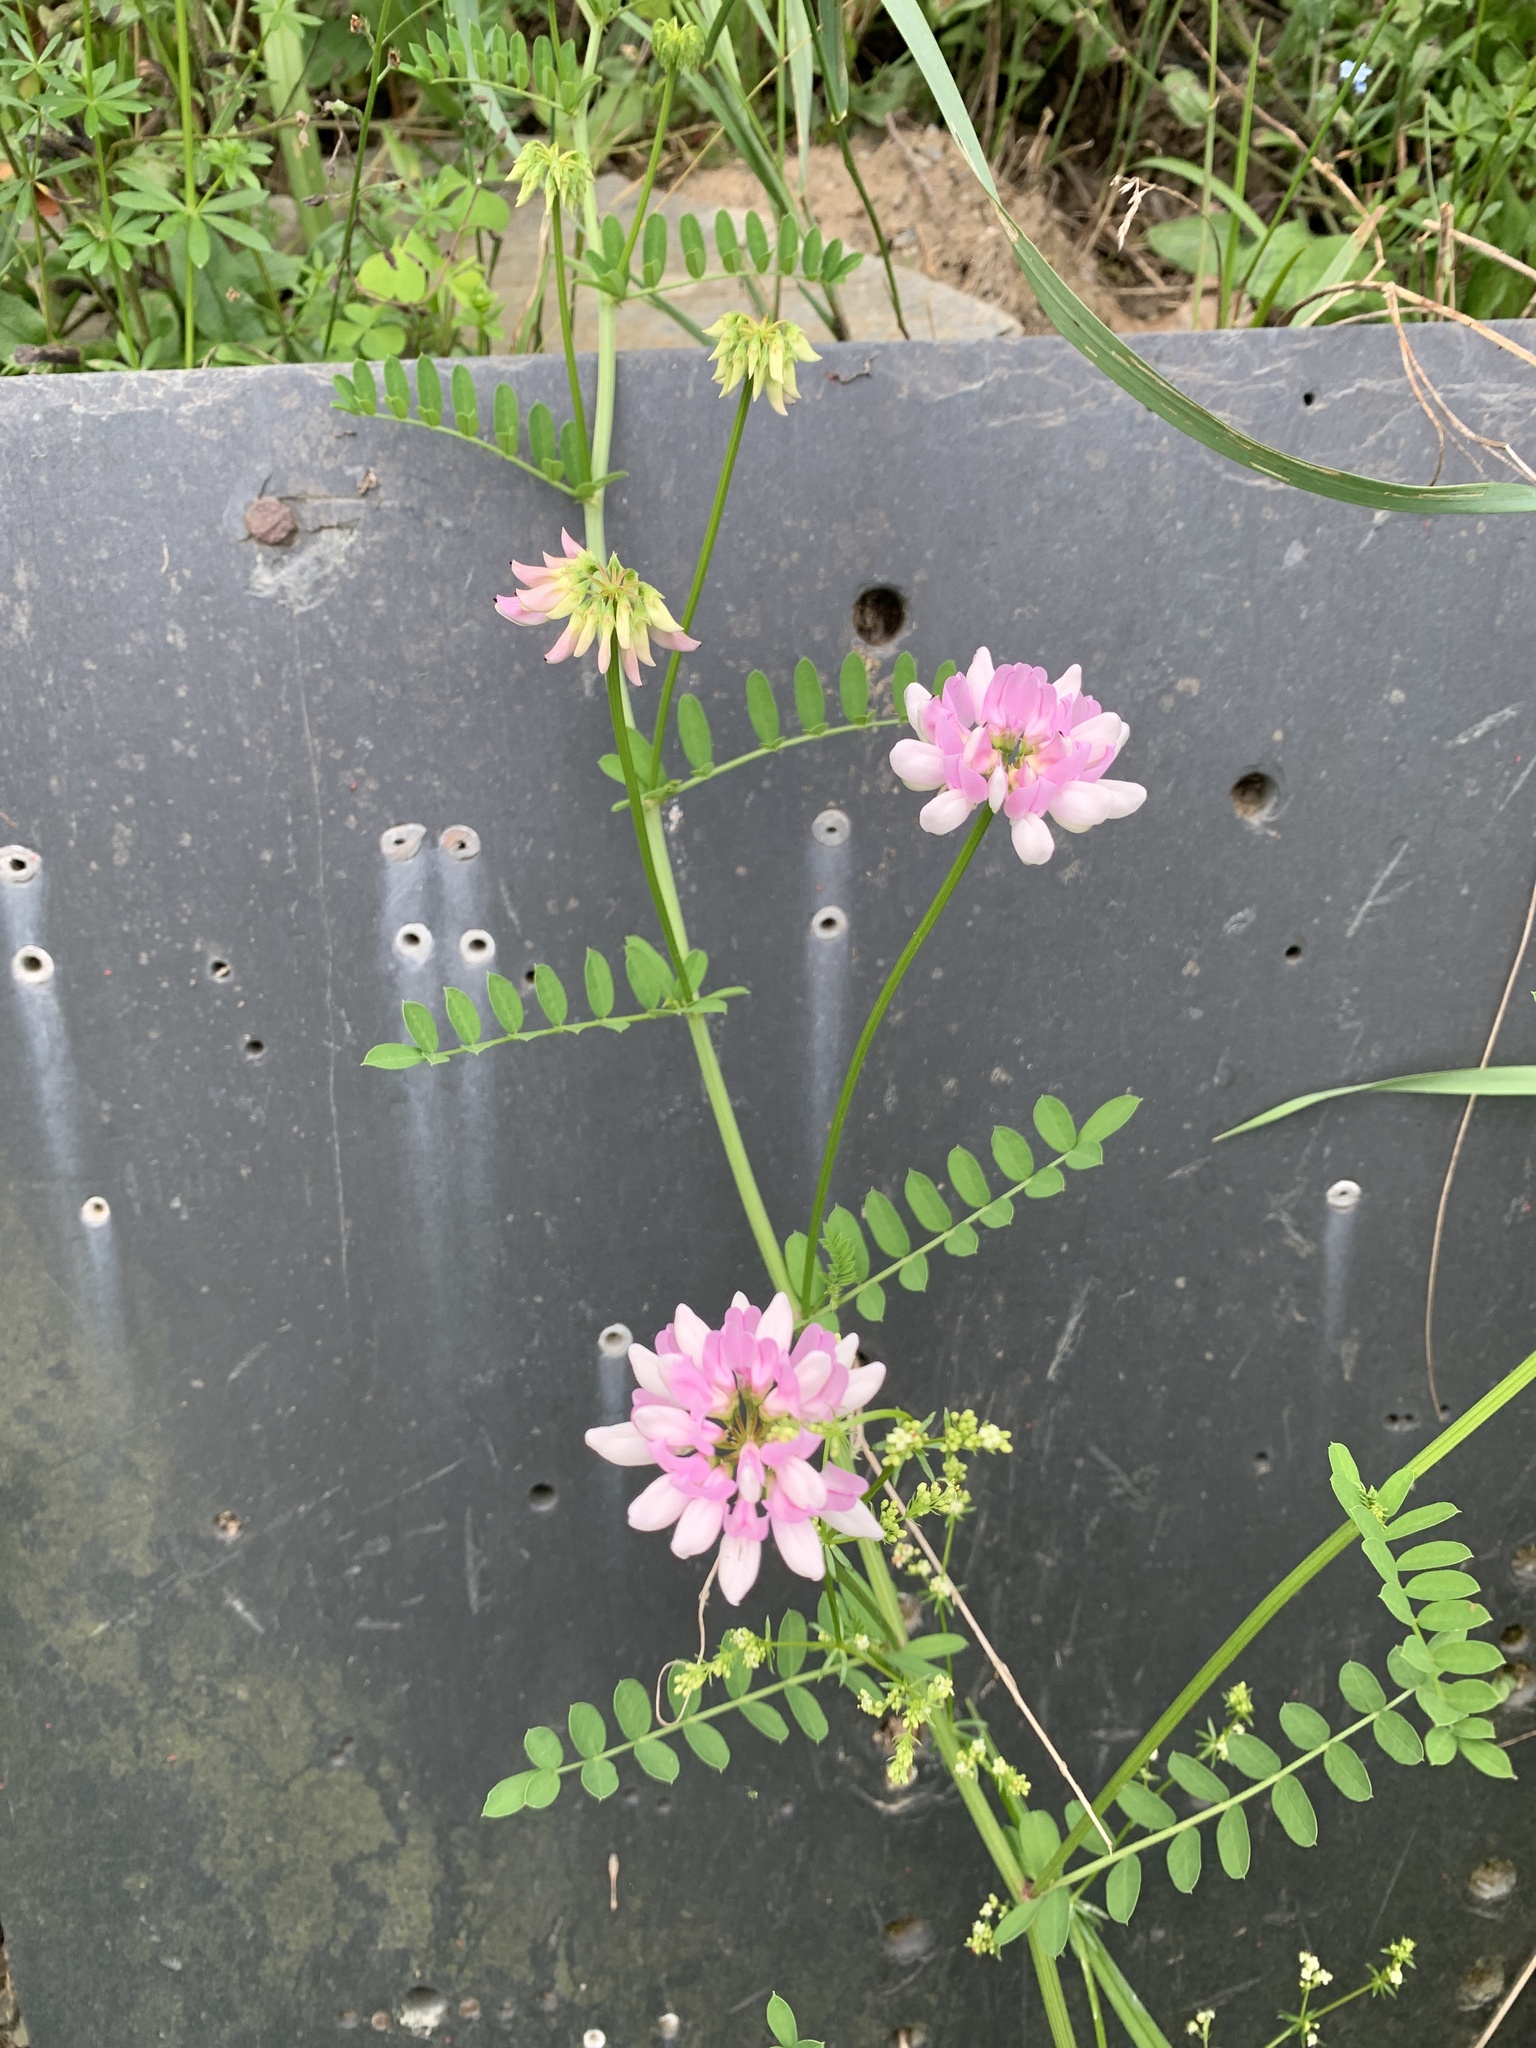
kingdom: Plantae
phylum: Tracheophyta
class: Magnoliopsida
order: Fabales
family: Fabaceae
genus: Coronilla
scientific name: Coronilla varia
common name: Crownvetch
